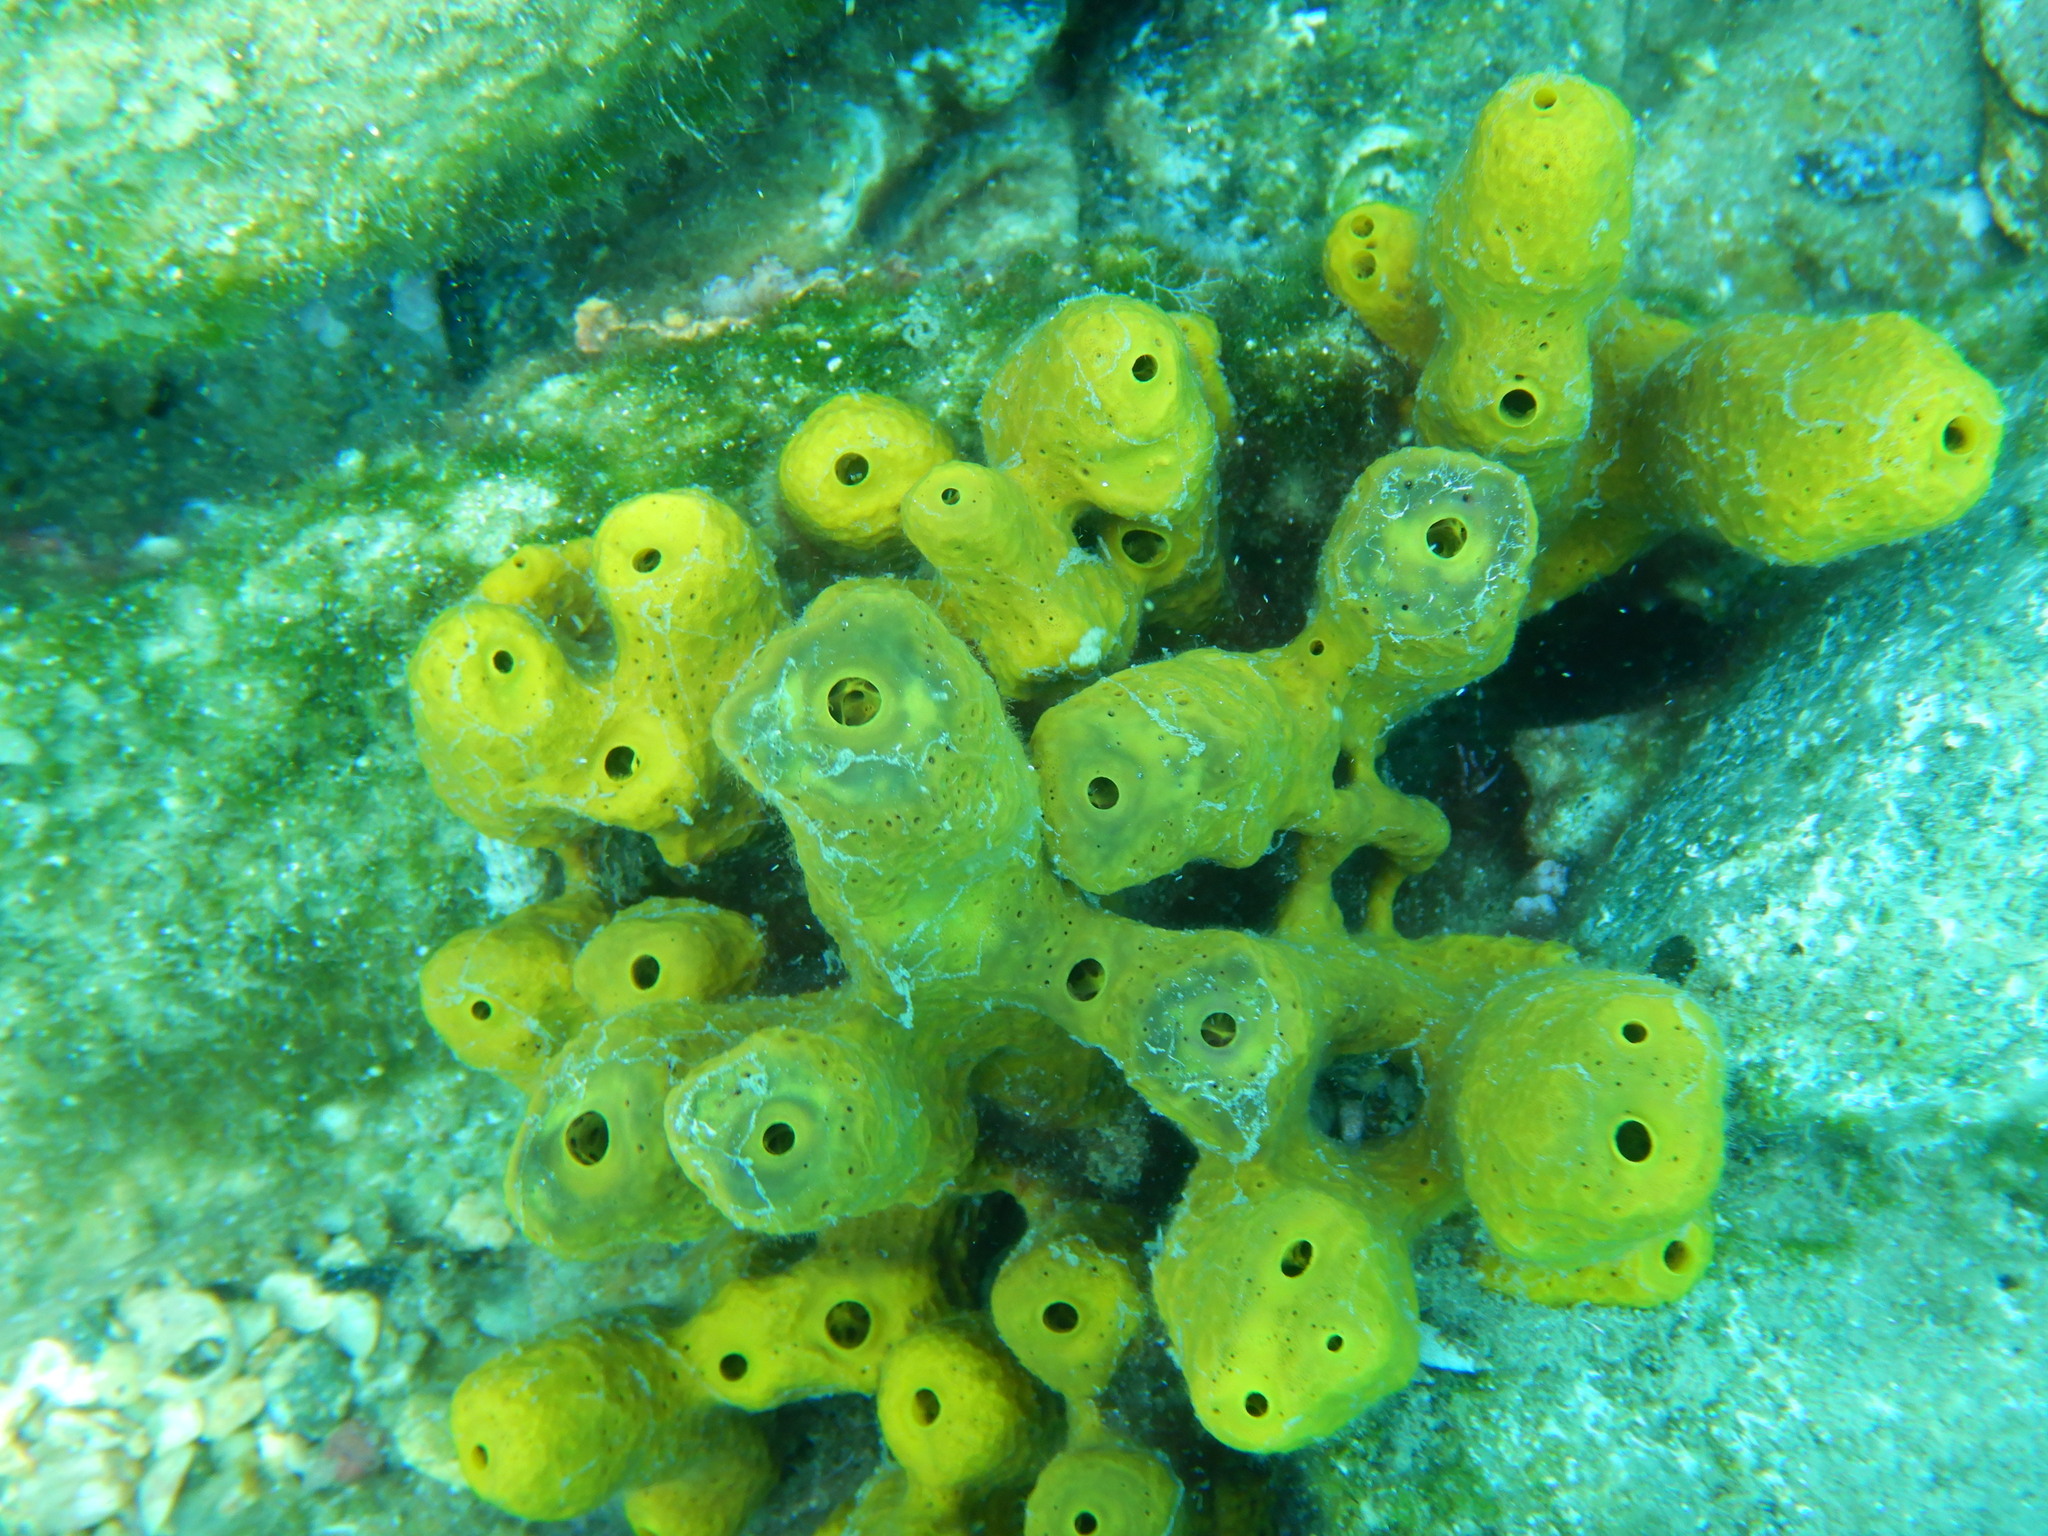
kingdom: Animalia
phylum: Porifera
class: Demospongiae
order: Verongiida
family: Aplysinidae
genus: Aplysina
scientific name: Aplysina aerophoba
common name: Aureate sponge
